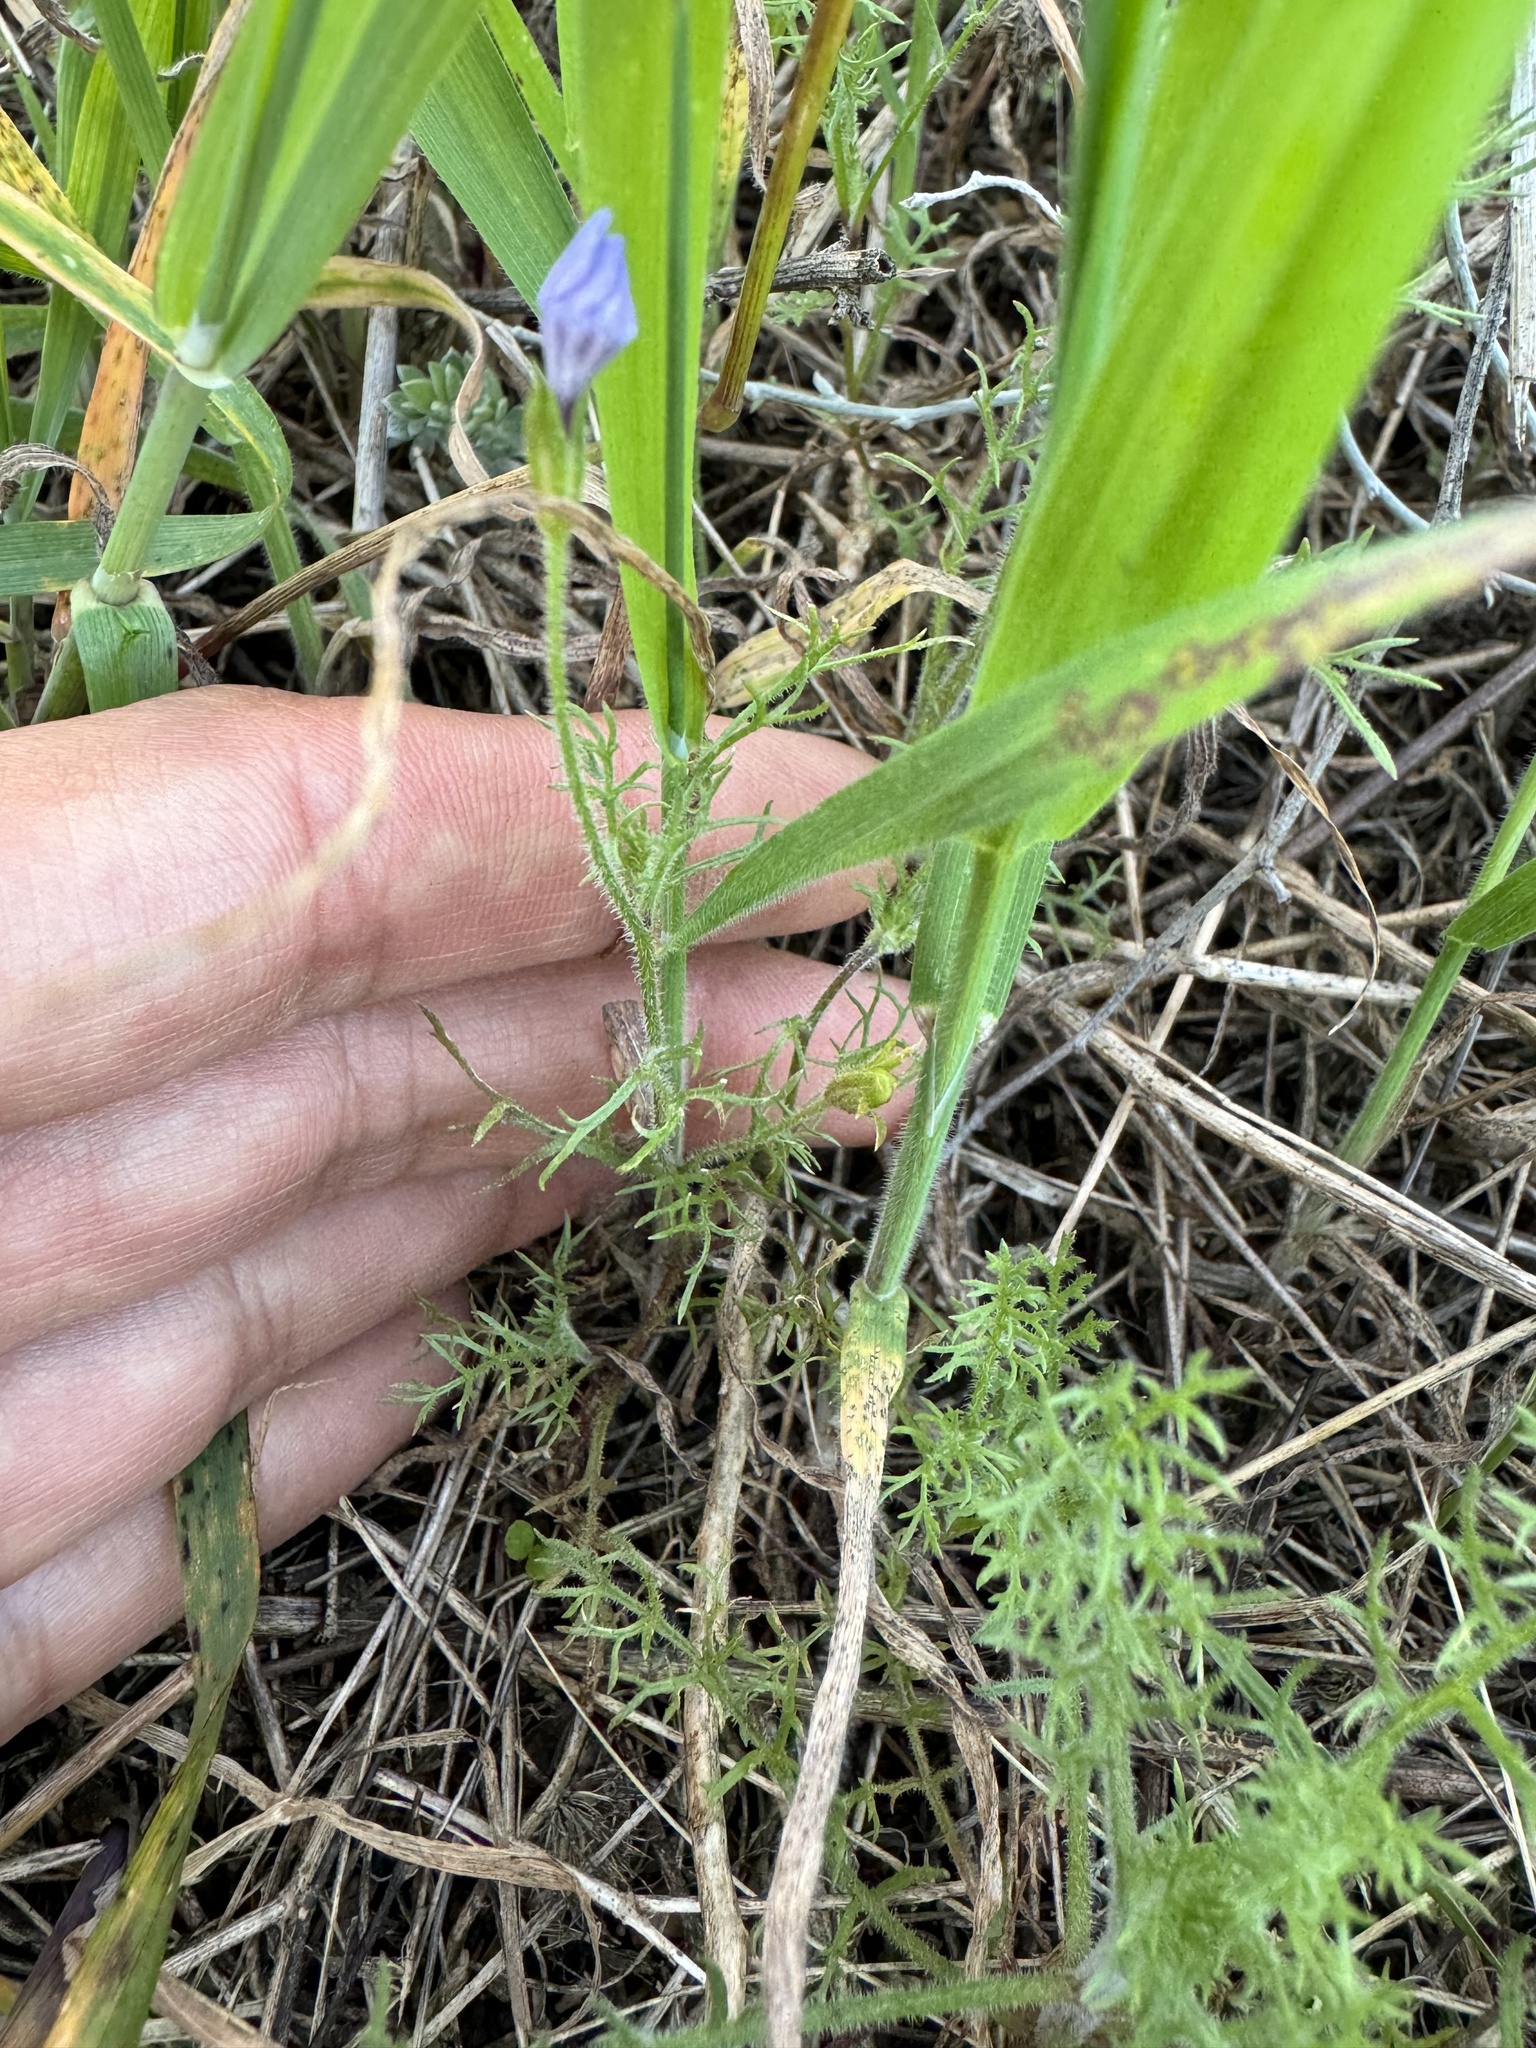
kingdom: Plantae
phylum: Tracheophyta
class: Magnoliopsida
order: Ericales
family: Polemoniaceae
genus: Gilia
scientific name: Gilia nevinii
